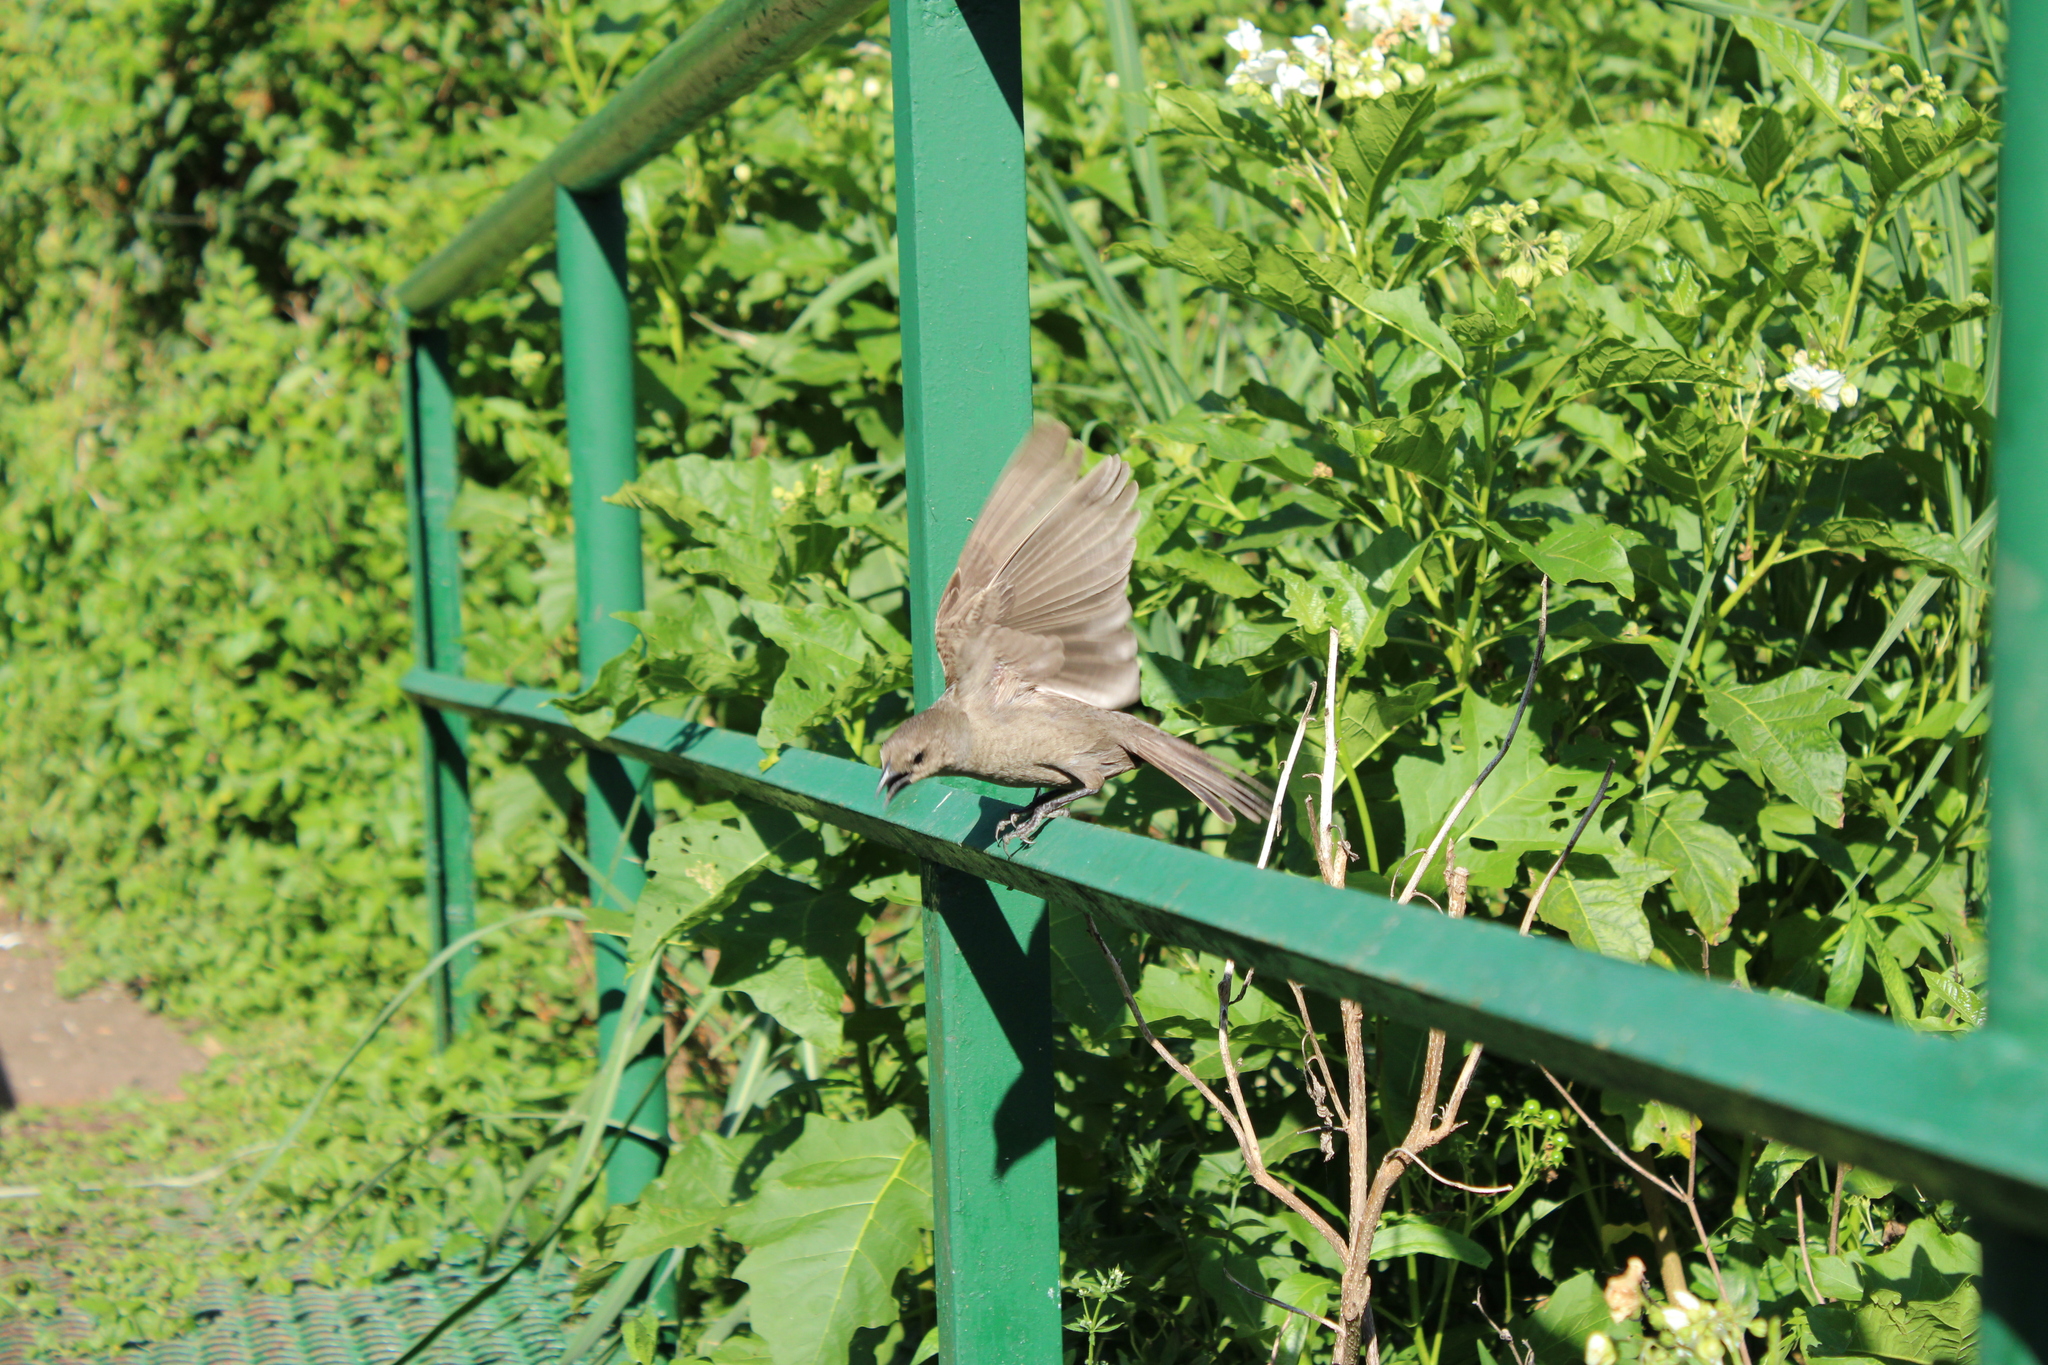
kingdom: Animalia
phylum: Chordata
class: Aves
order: Passeriformes
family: Icteridae
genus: Molothrus
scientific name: Molothrus bonariensis
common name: Shiny cowbird
